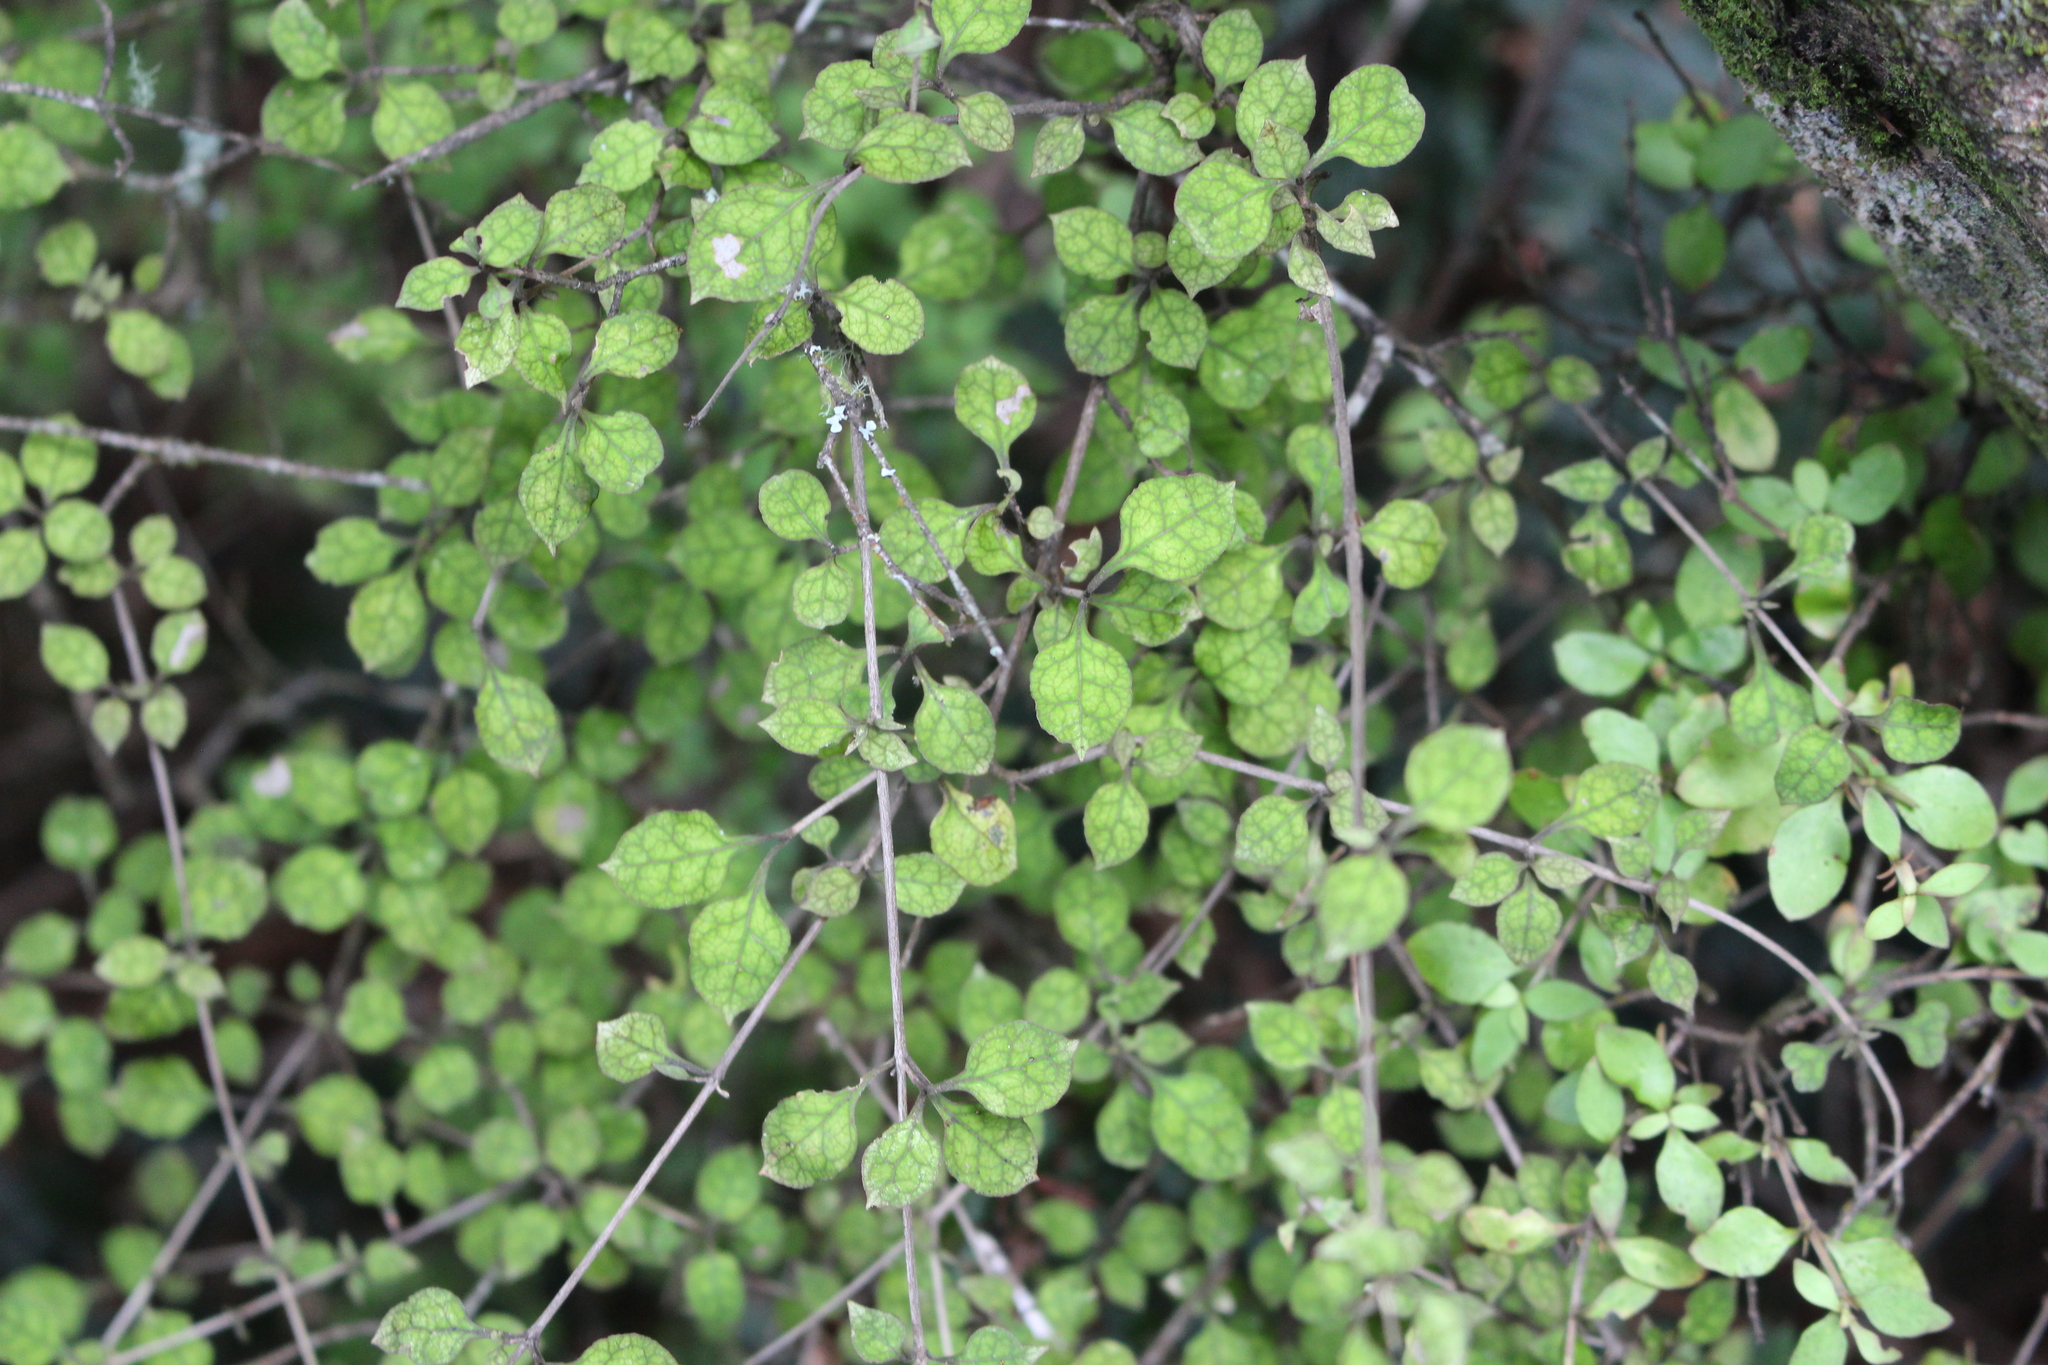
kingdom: Plantae
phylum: Tracheophyta
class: Magnoliopsida
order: Gentianales
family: Rubiaceae
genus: Coprosma
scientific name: Coprosma areolata
